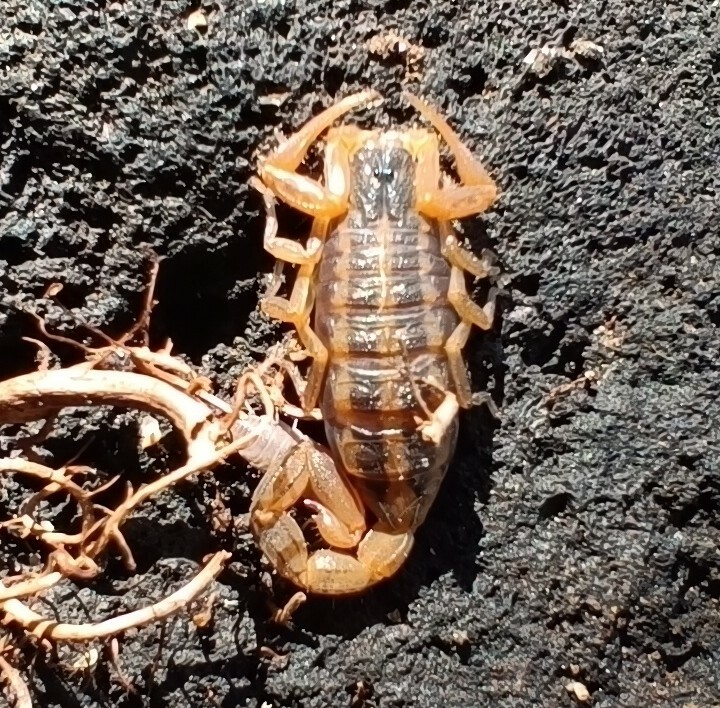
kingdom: Animalia
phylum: Arthropoda
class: Arachnida
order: Scorpiones
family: Buthidae
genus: Centruroides
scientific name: Centruroides ornatus
